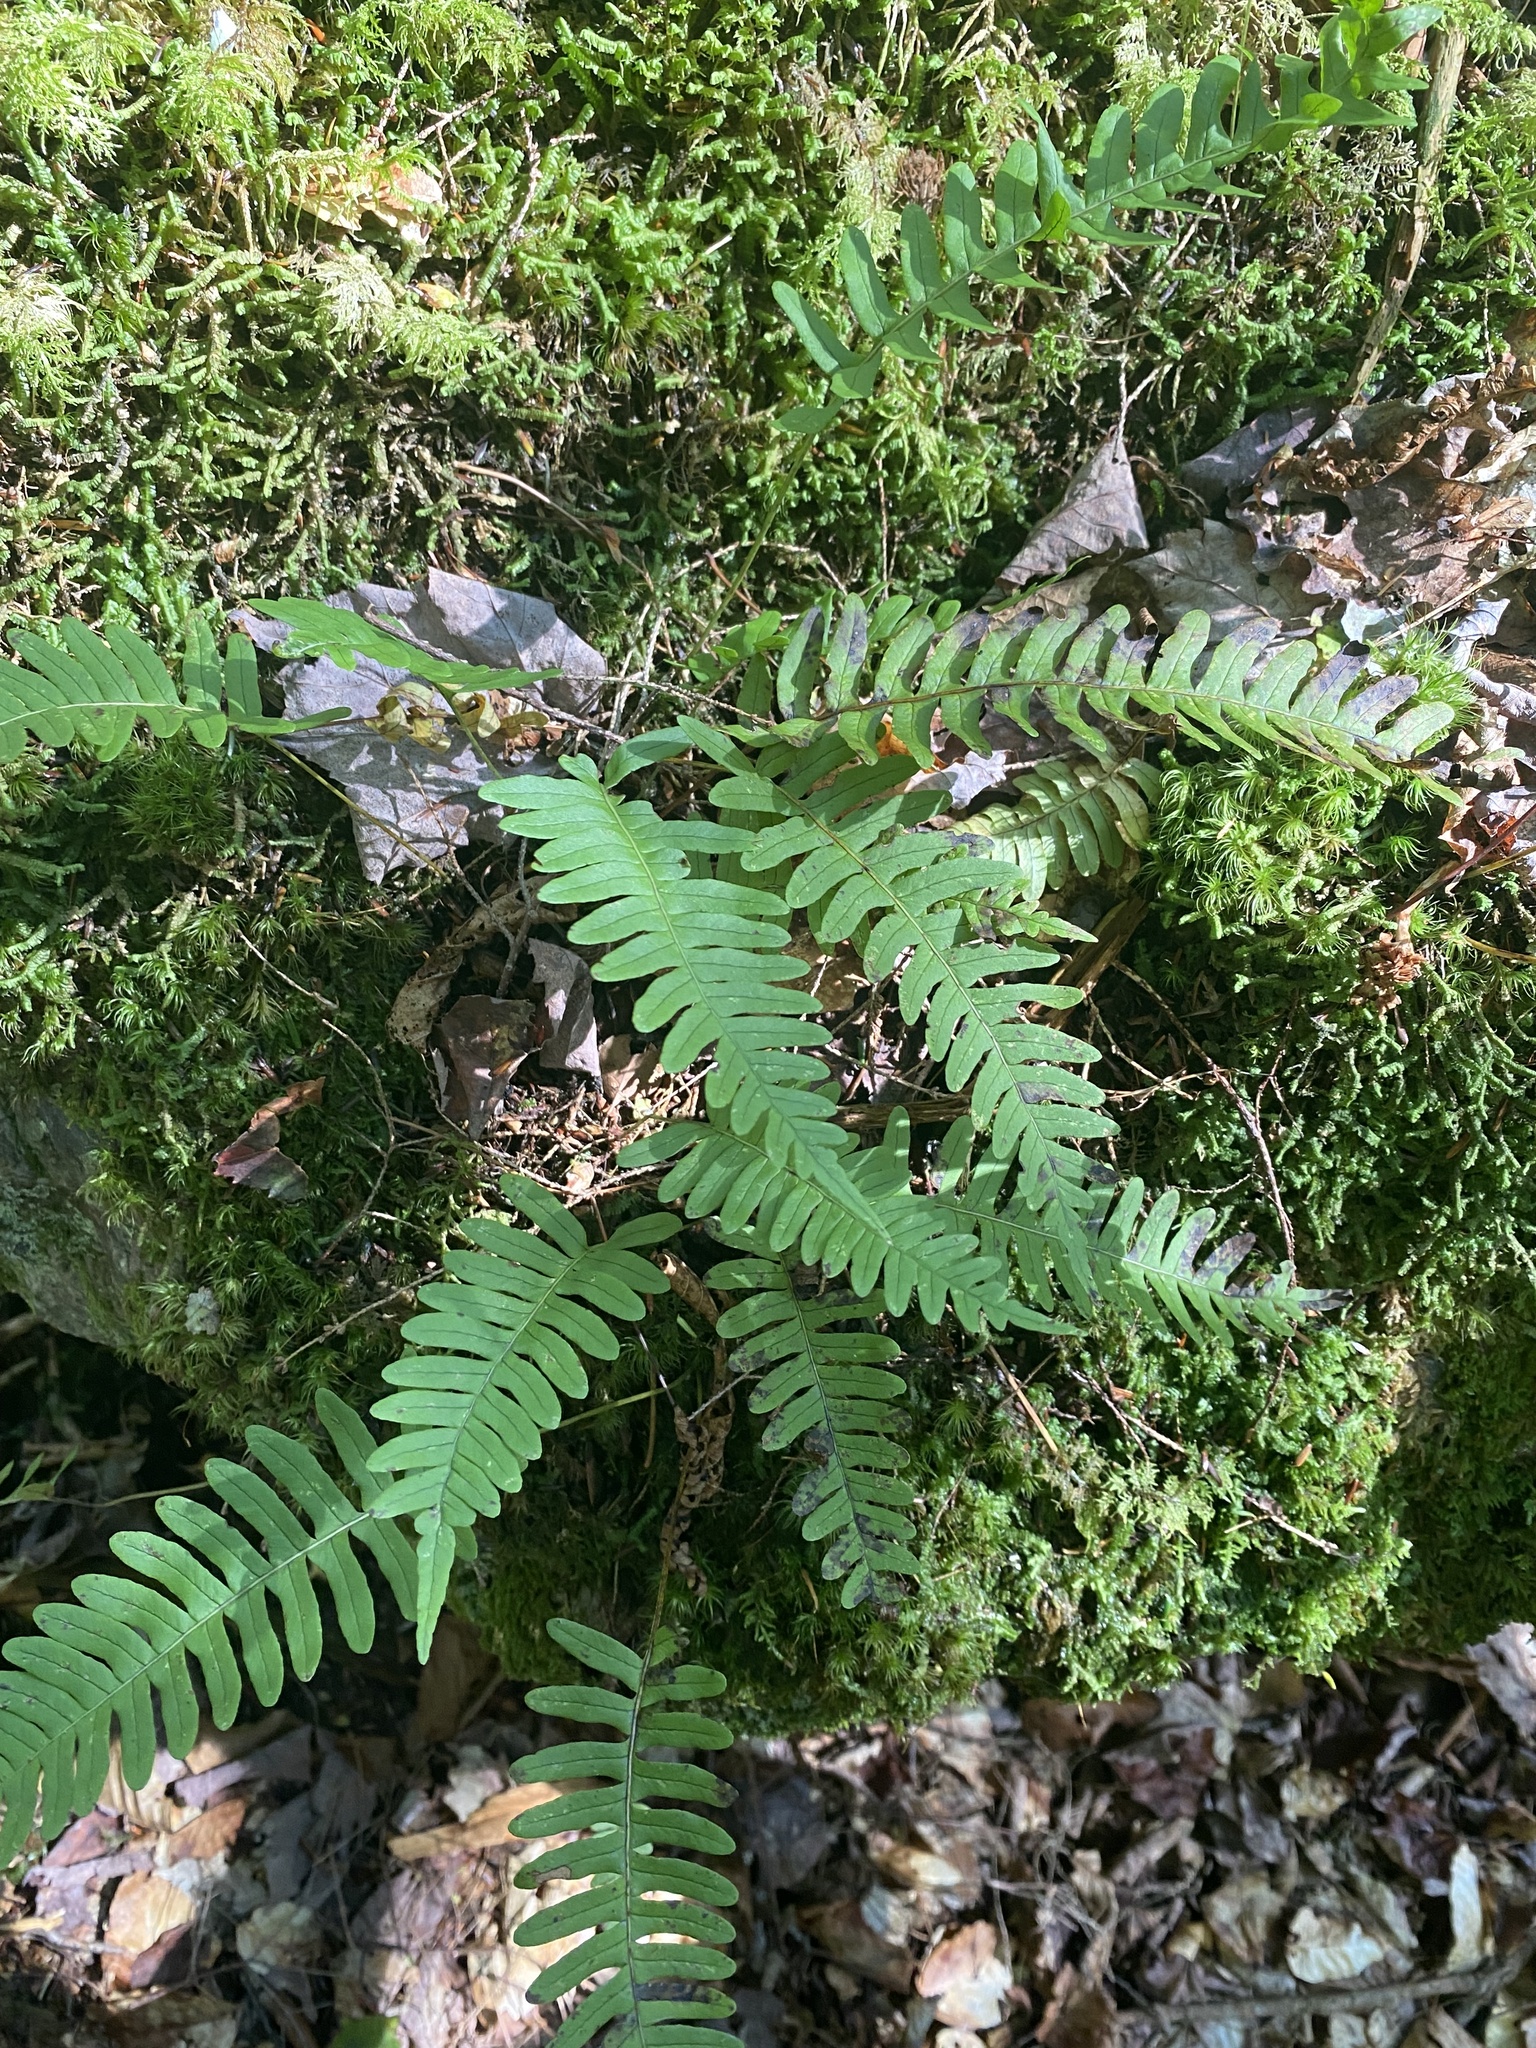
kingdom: Plantae
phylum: Tracheophyta
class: Polypodiopsida
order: Polypodiales
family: Polypodiaceae
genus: Polypodium
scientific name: Polypodium virginianum
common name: American wall fern
